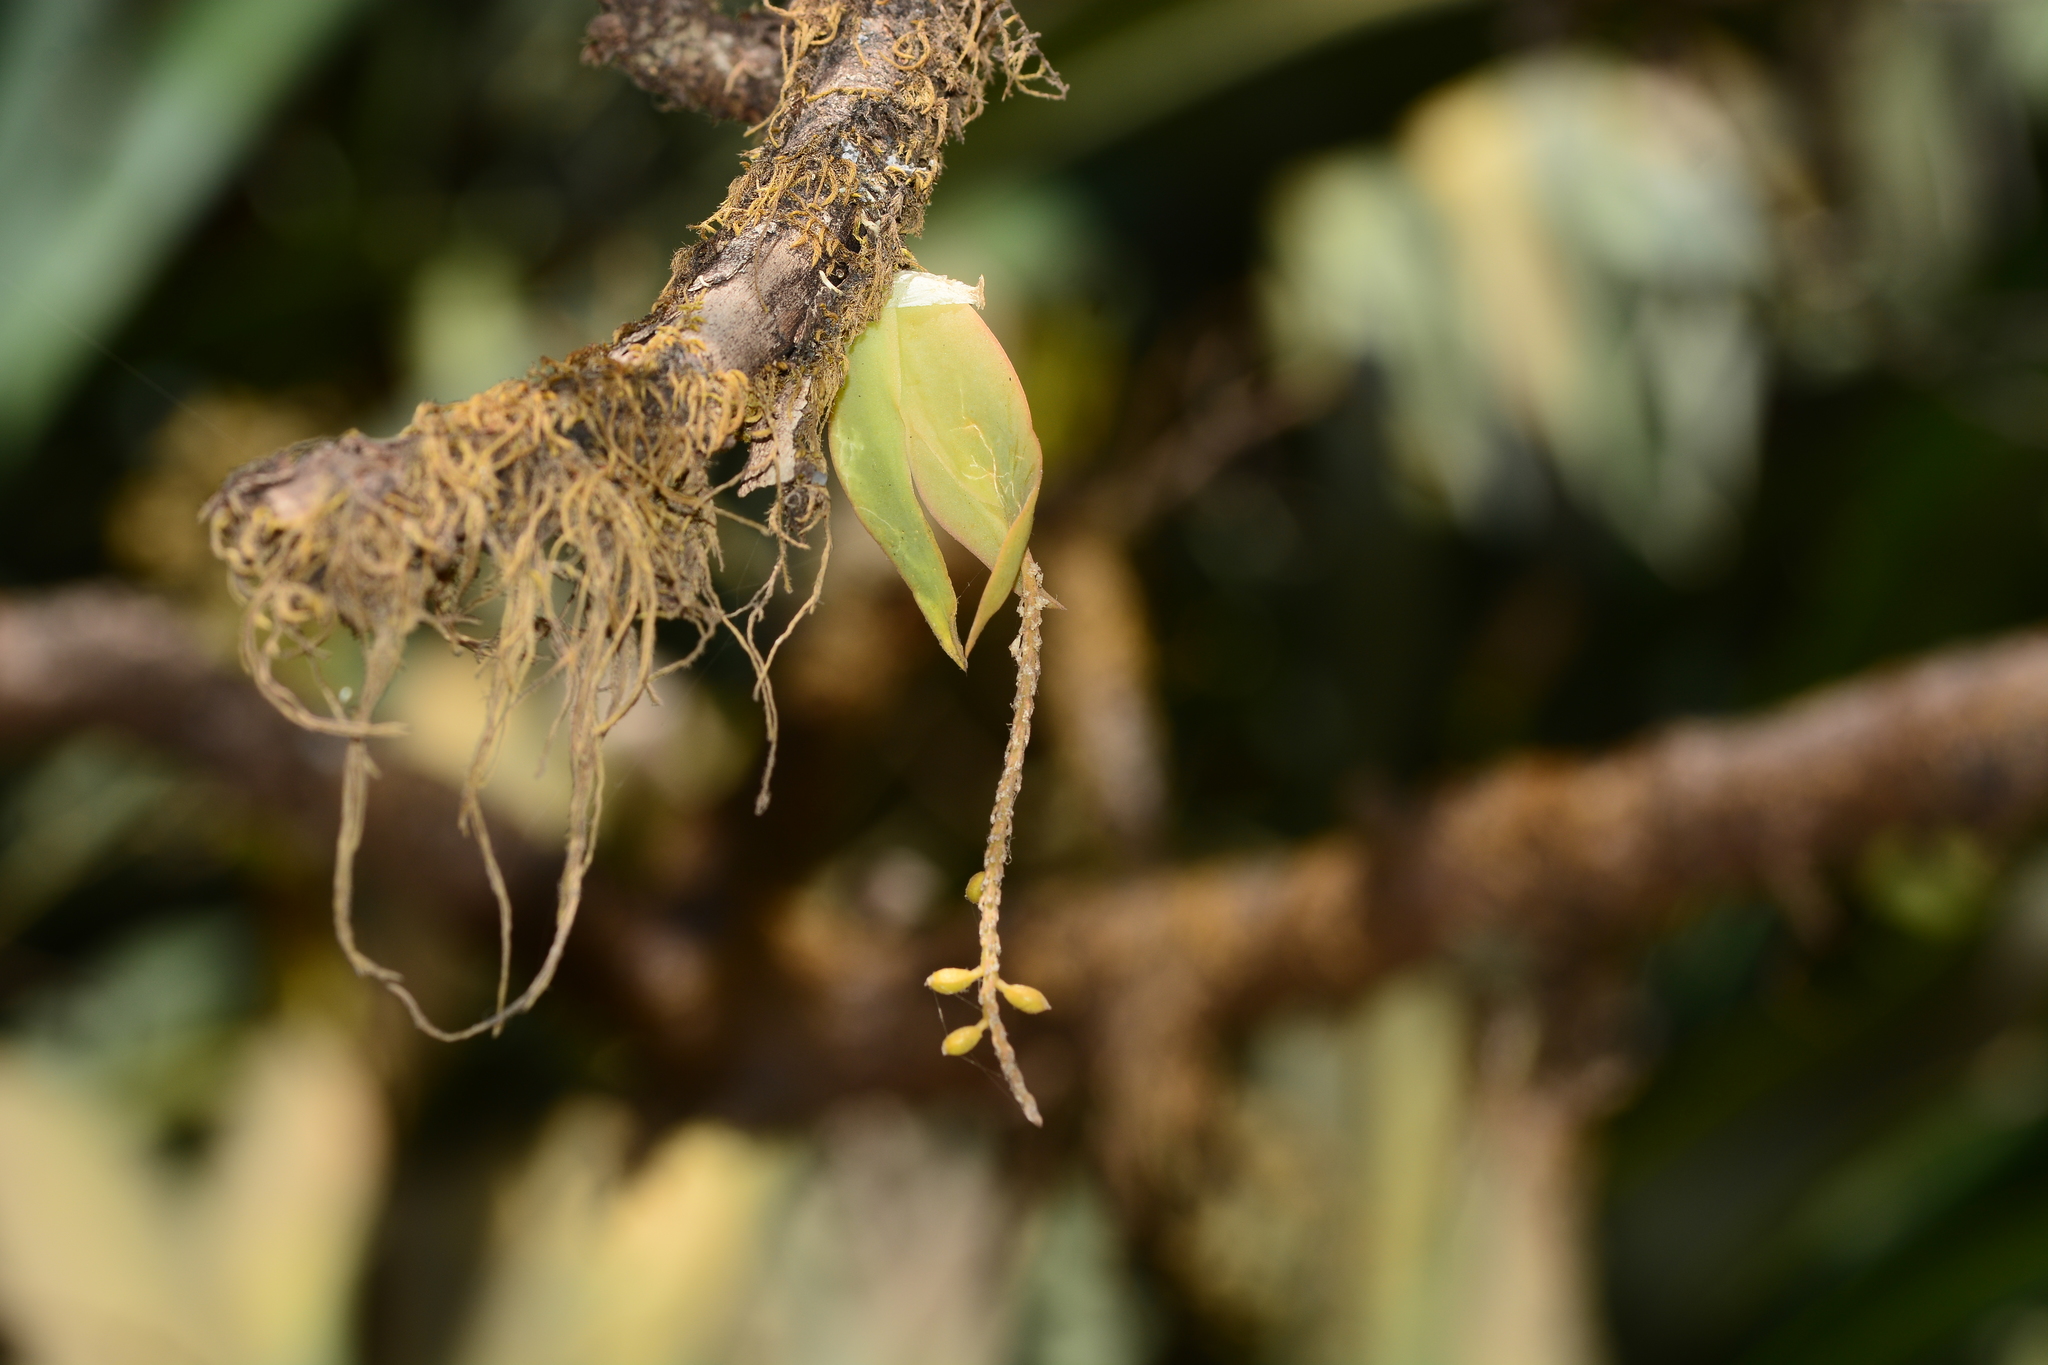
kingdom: Plantae
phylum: Tracheophyta
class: Liliopsida
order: Asparagales
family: Orchidaceae
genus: Oberonia
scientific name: Oberonia falconeri
